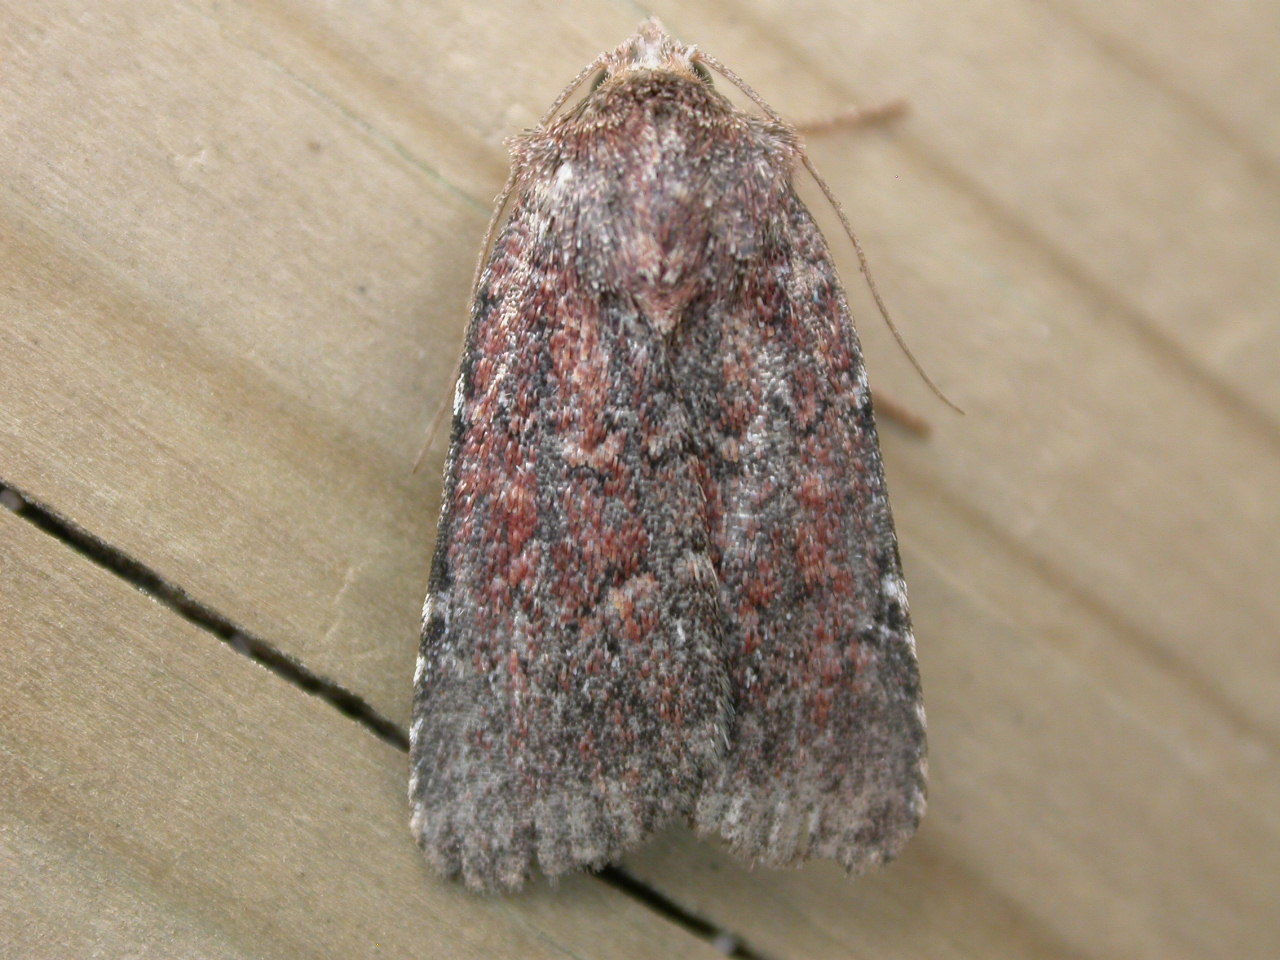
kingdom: Animalia
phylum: Arthropoda
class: Insecta
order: Lepidoptera
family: Noctuidae
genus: Lycophotia
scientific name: Lycophotia erythrina
